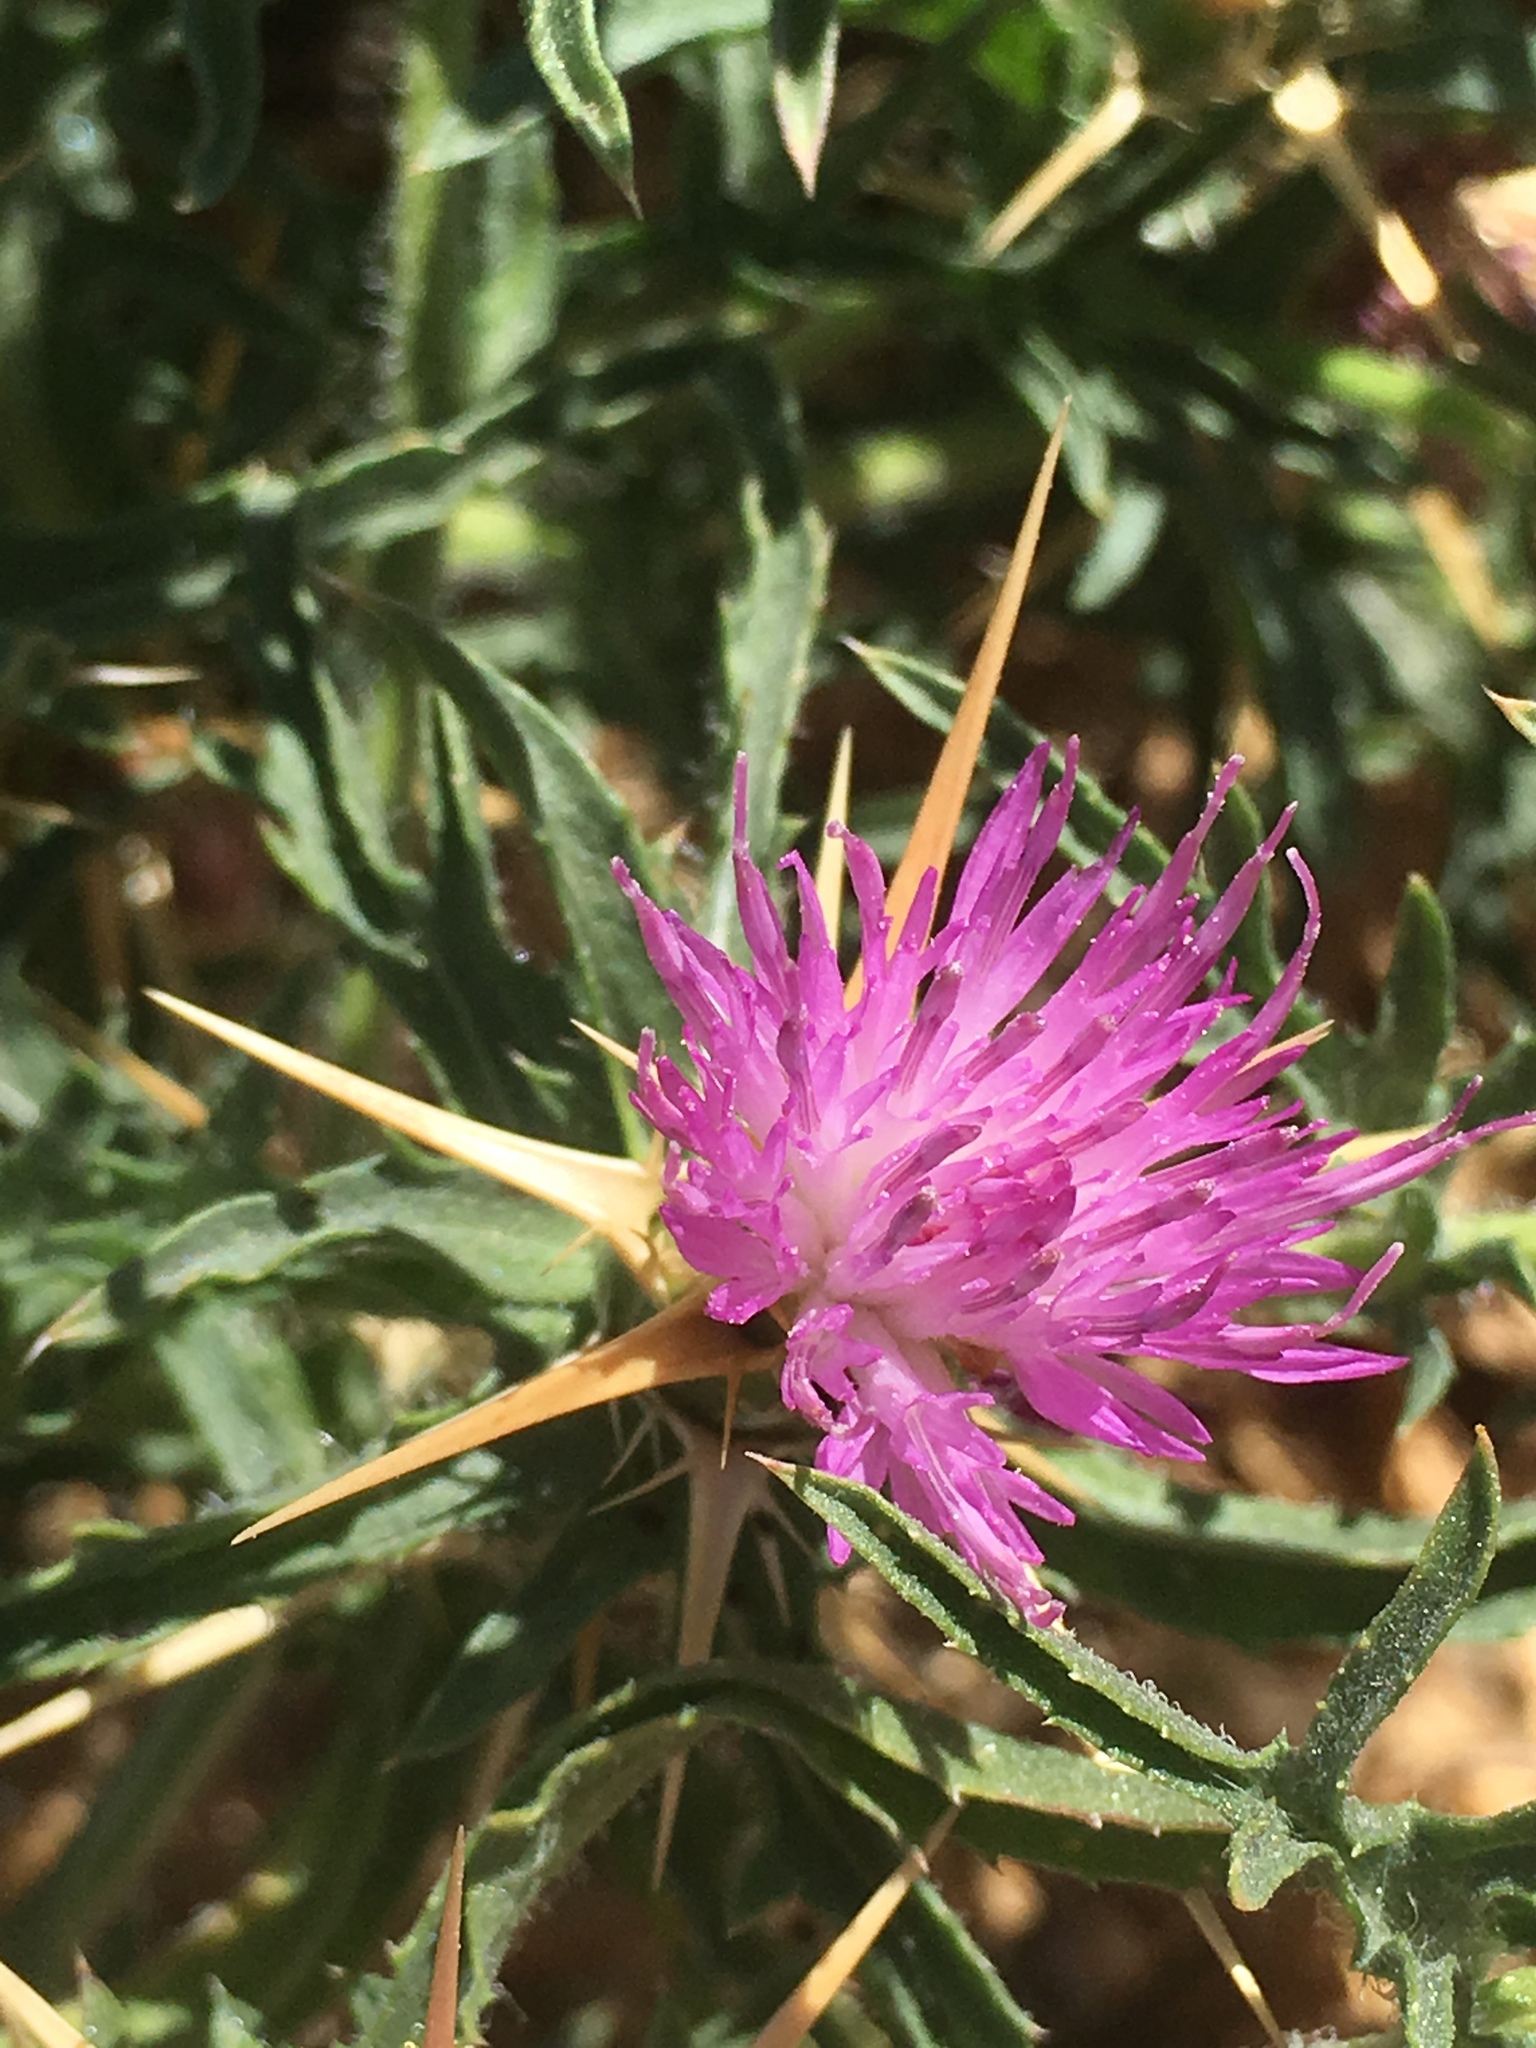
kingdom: Plantae
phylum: Tracheophyta
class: Magnoliopsida
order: Asterales
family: Asteraceae
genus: Centaurea
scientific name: Centaurea calcitrapa
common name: Red star-thistle
